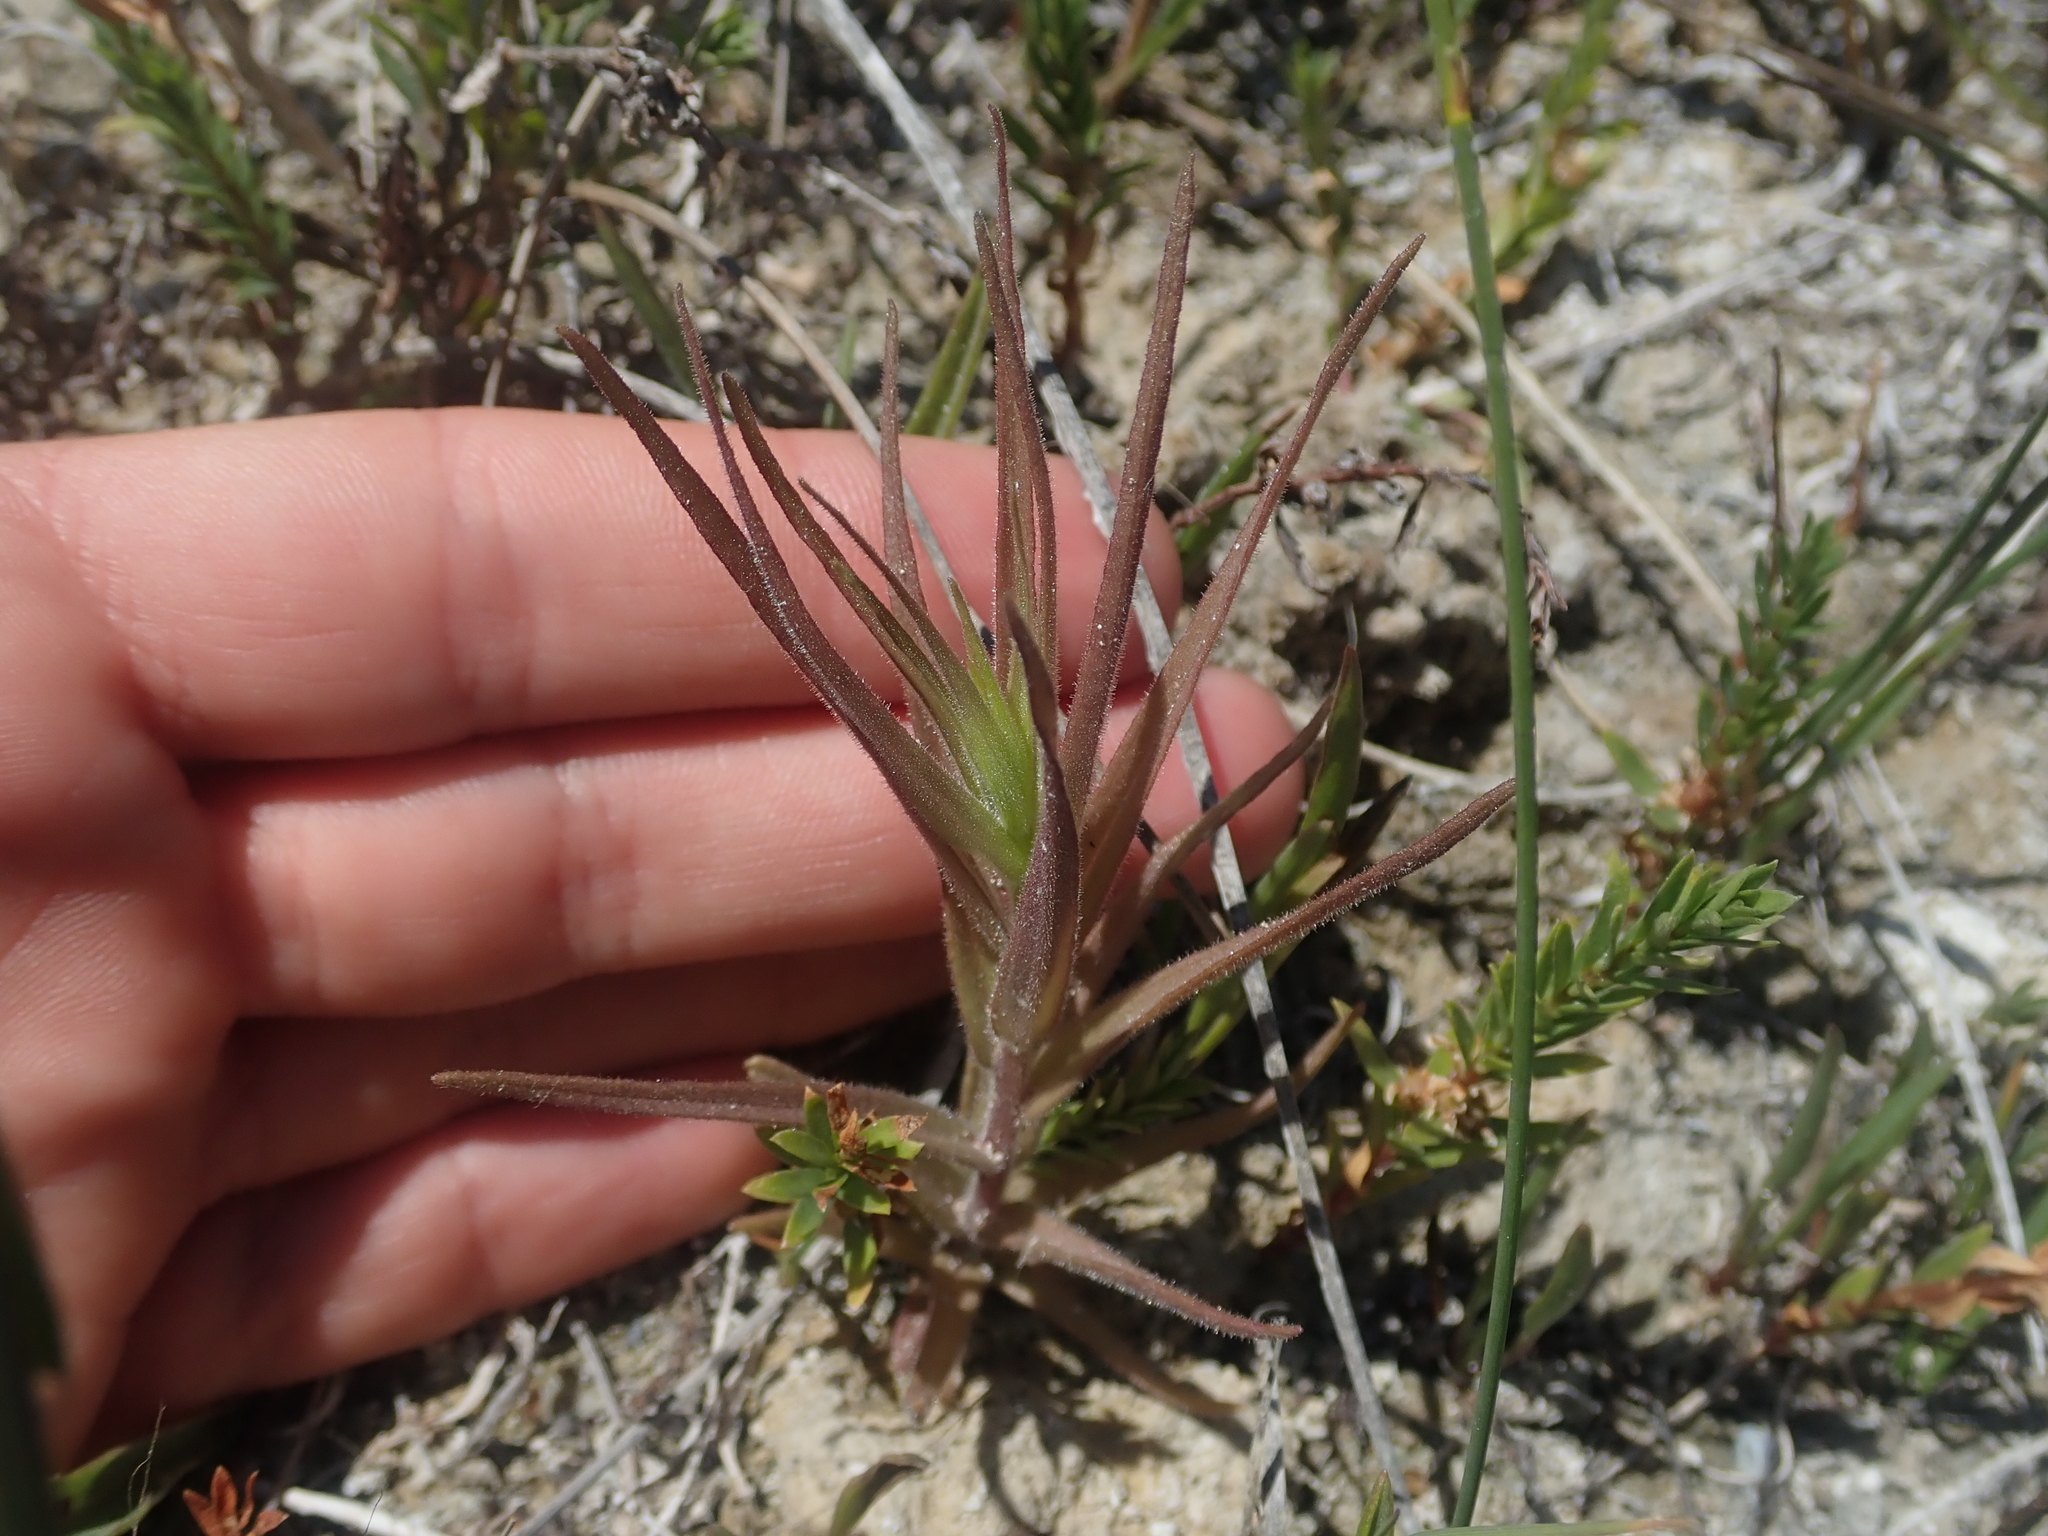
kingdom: Plantae
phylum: Tracheophyta
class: Magnoliopsida
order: Lamiales
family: Orobanchaceae
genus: Castilleja
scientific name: Castilleja minor
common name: Seep paintbrush
